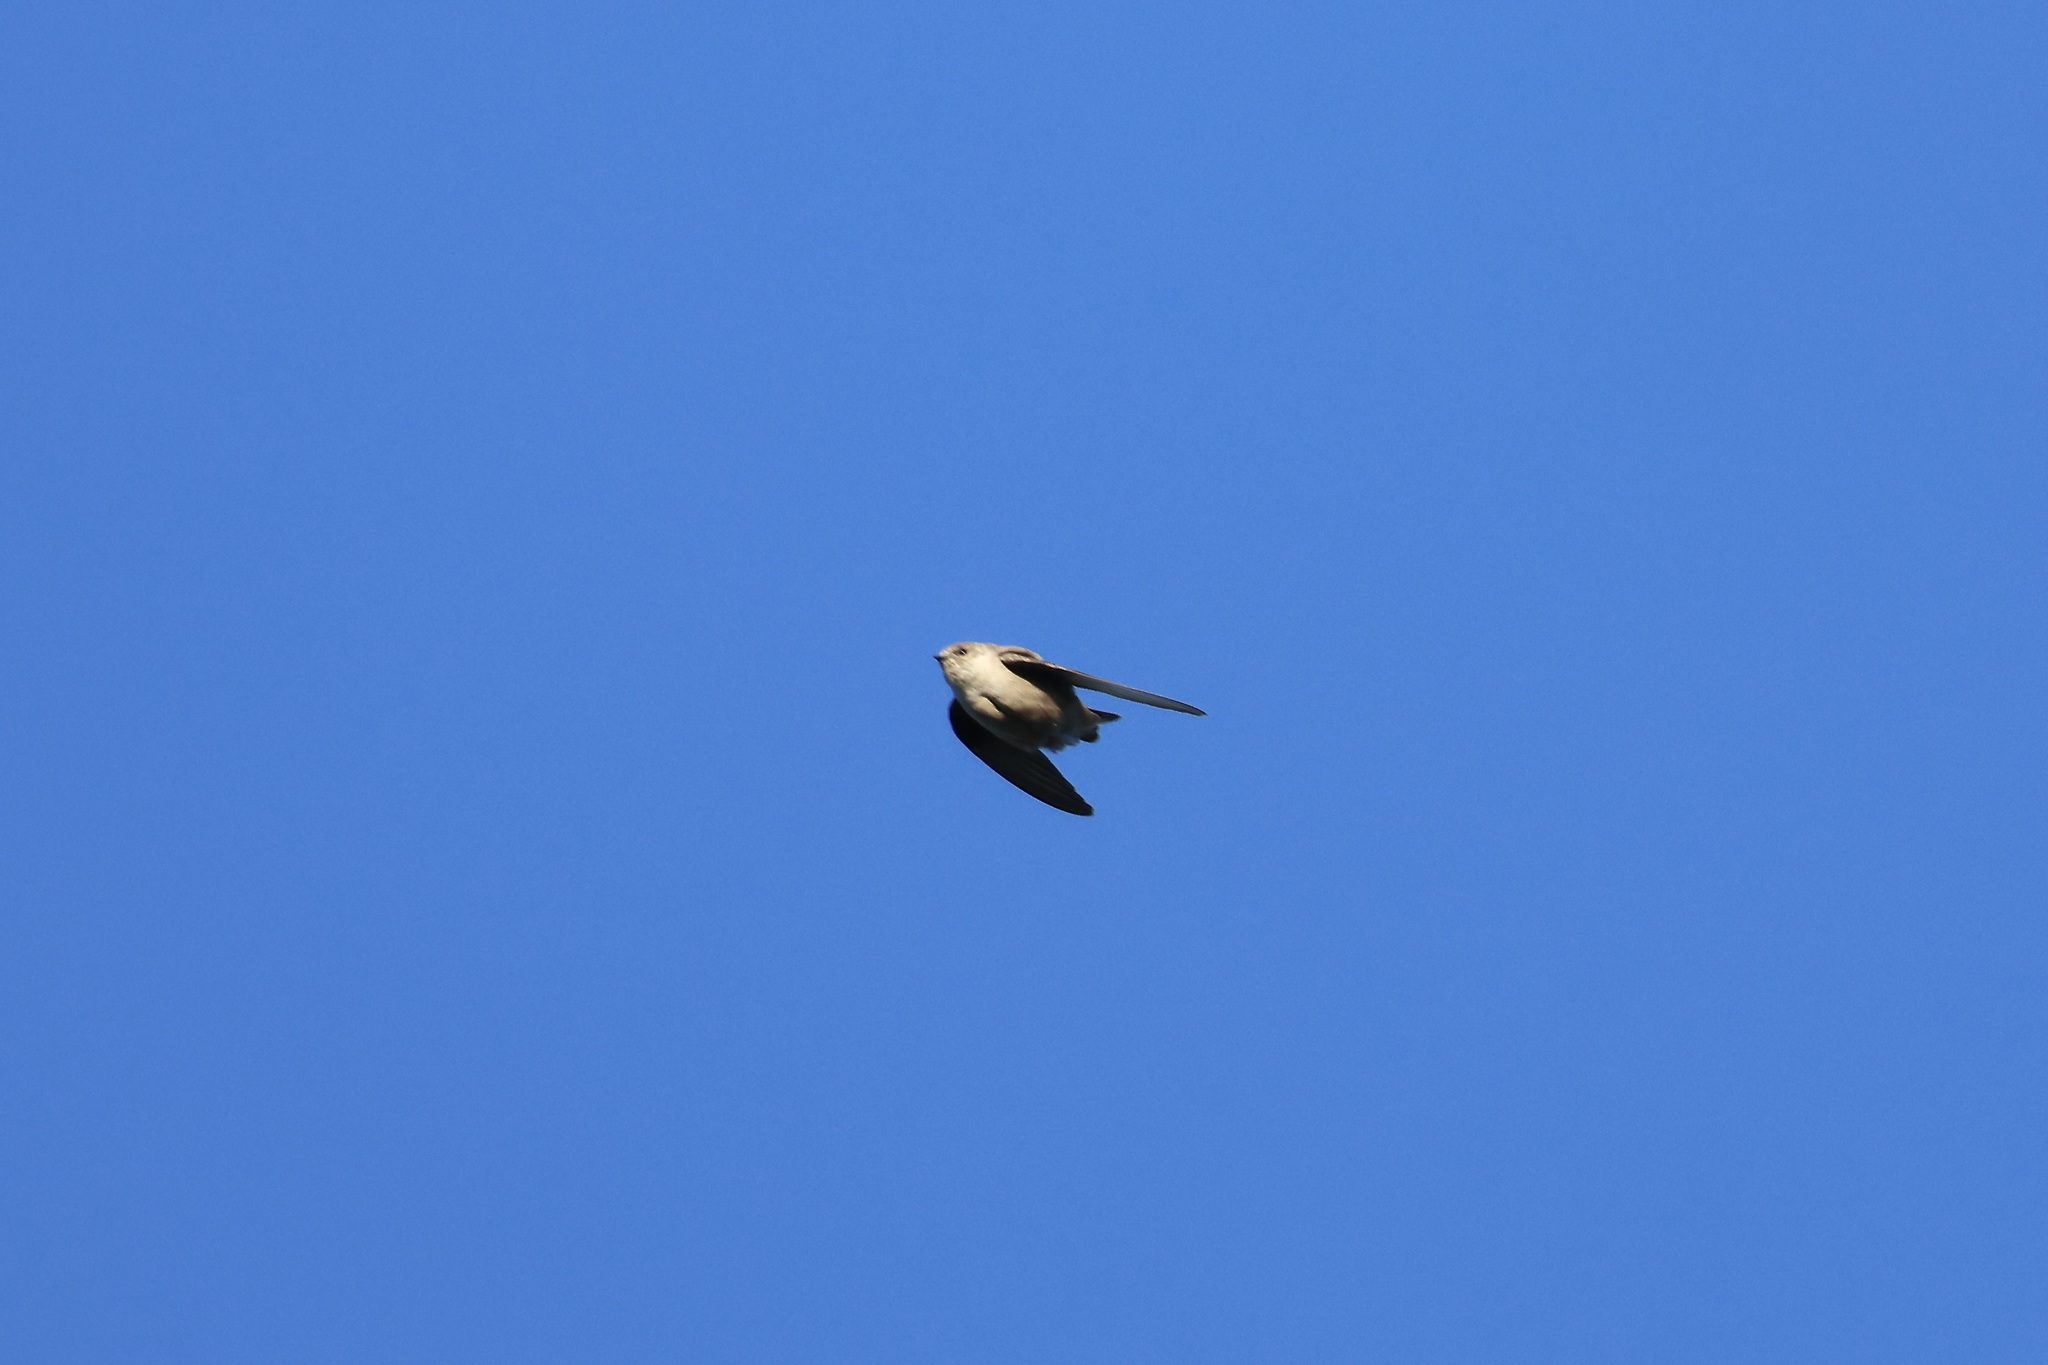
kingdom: Animalia
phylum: Chordata
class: Aves
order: Passeriformes
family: Hirundinidae
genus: Ptyonoprogne
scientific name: Ptyonoprogne rupestris
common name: Eurasian crag martin
